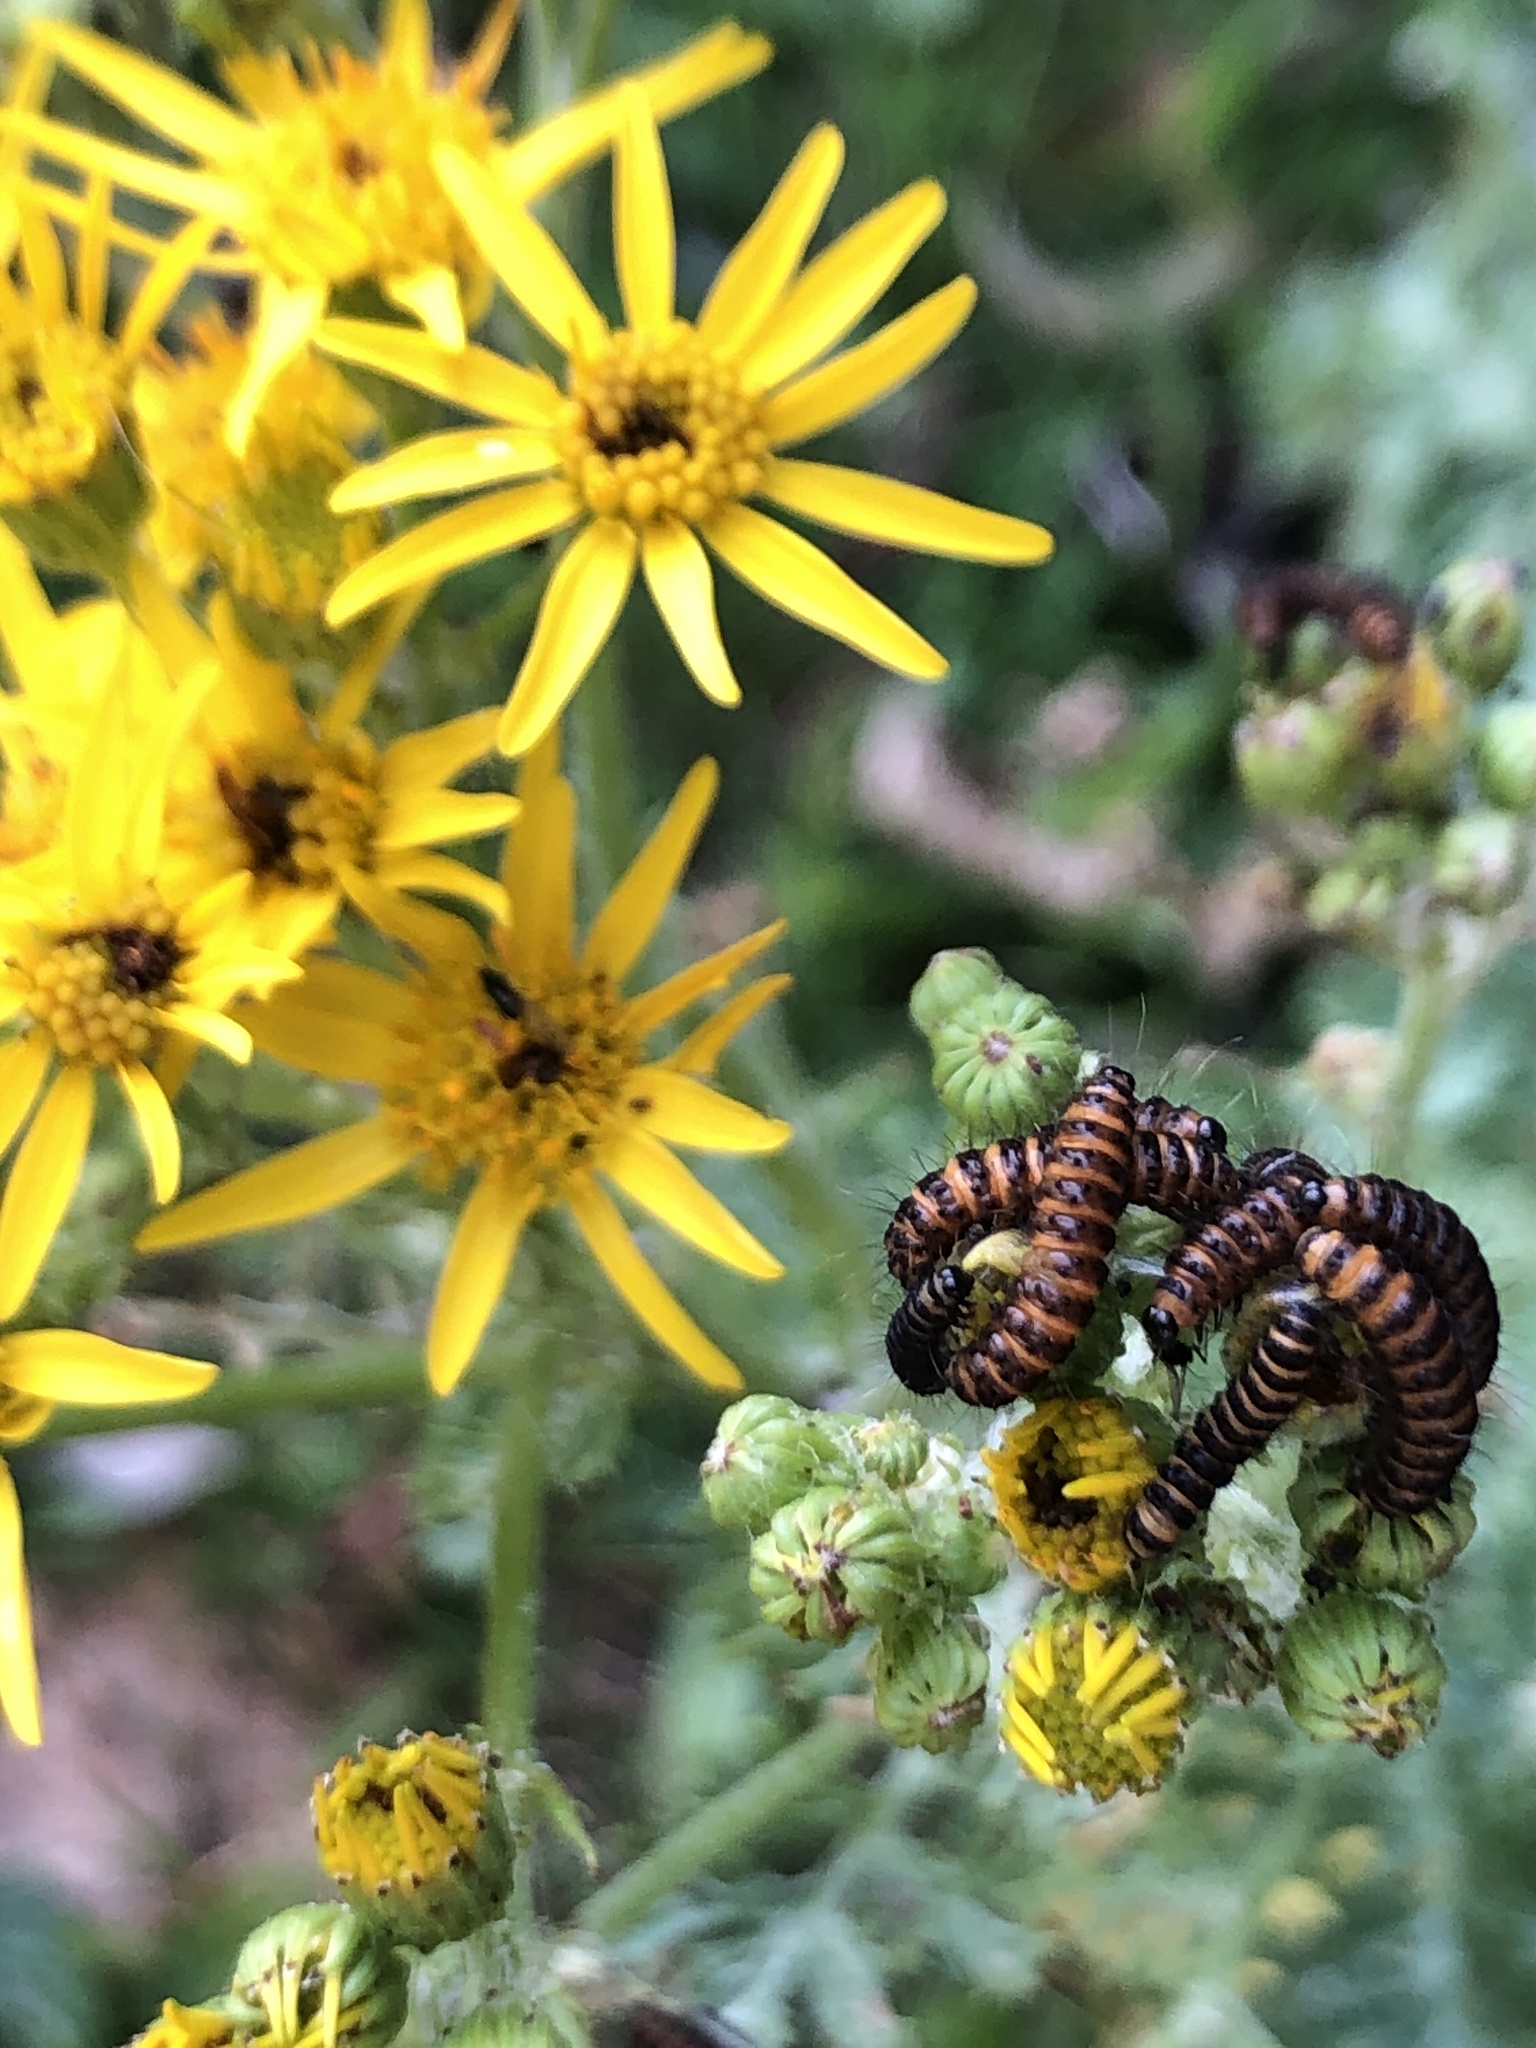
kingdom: Animalia
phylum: Arthropoda
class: Insecta
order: Lepidoptera
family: Erebidae
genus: Tyria
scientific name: Tyria jacobaeae
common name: Cinnabar
